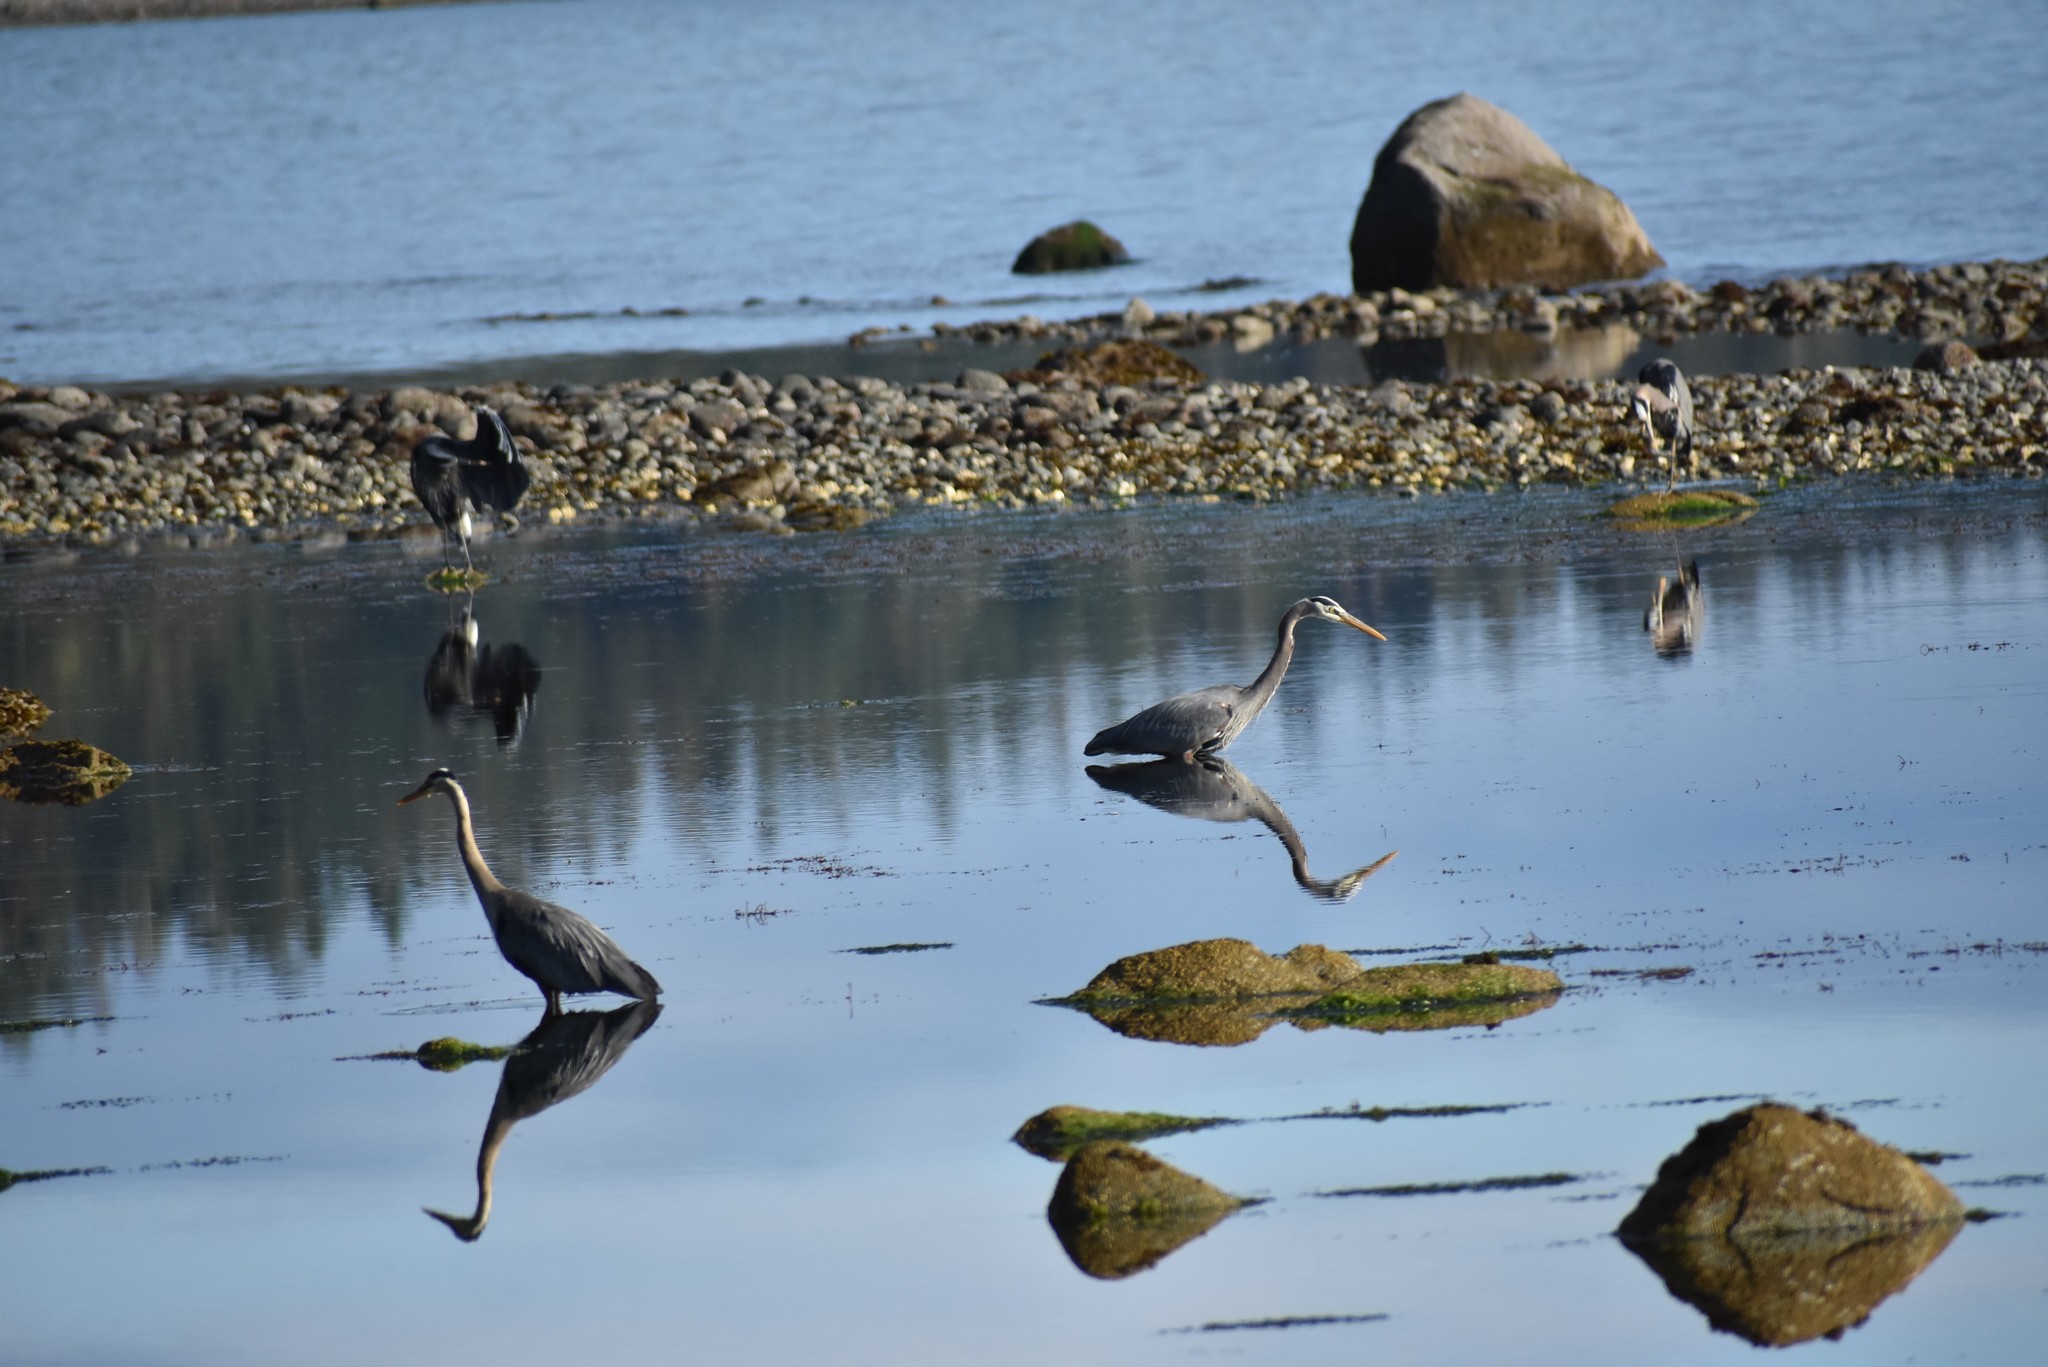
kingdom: Animalia
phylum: Chordata
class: Aves
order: Pelecaniformes
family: Ardeidae
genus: Ardea
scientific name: Ardea herodias
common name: Great blue heron
